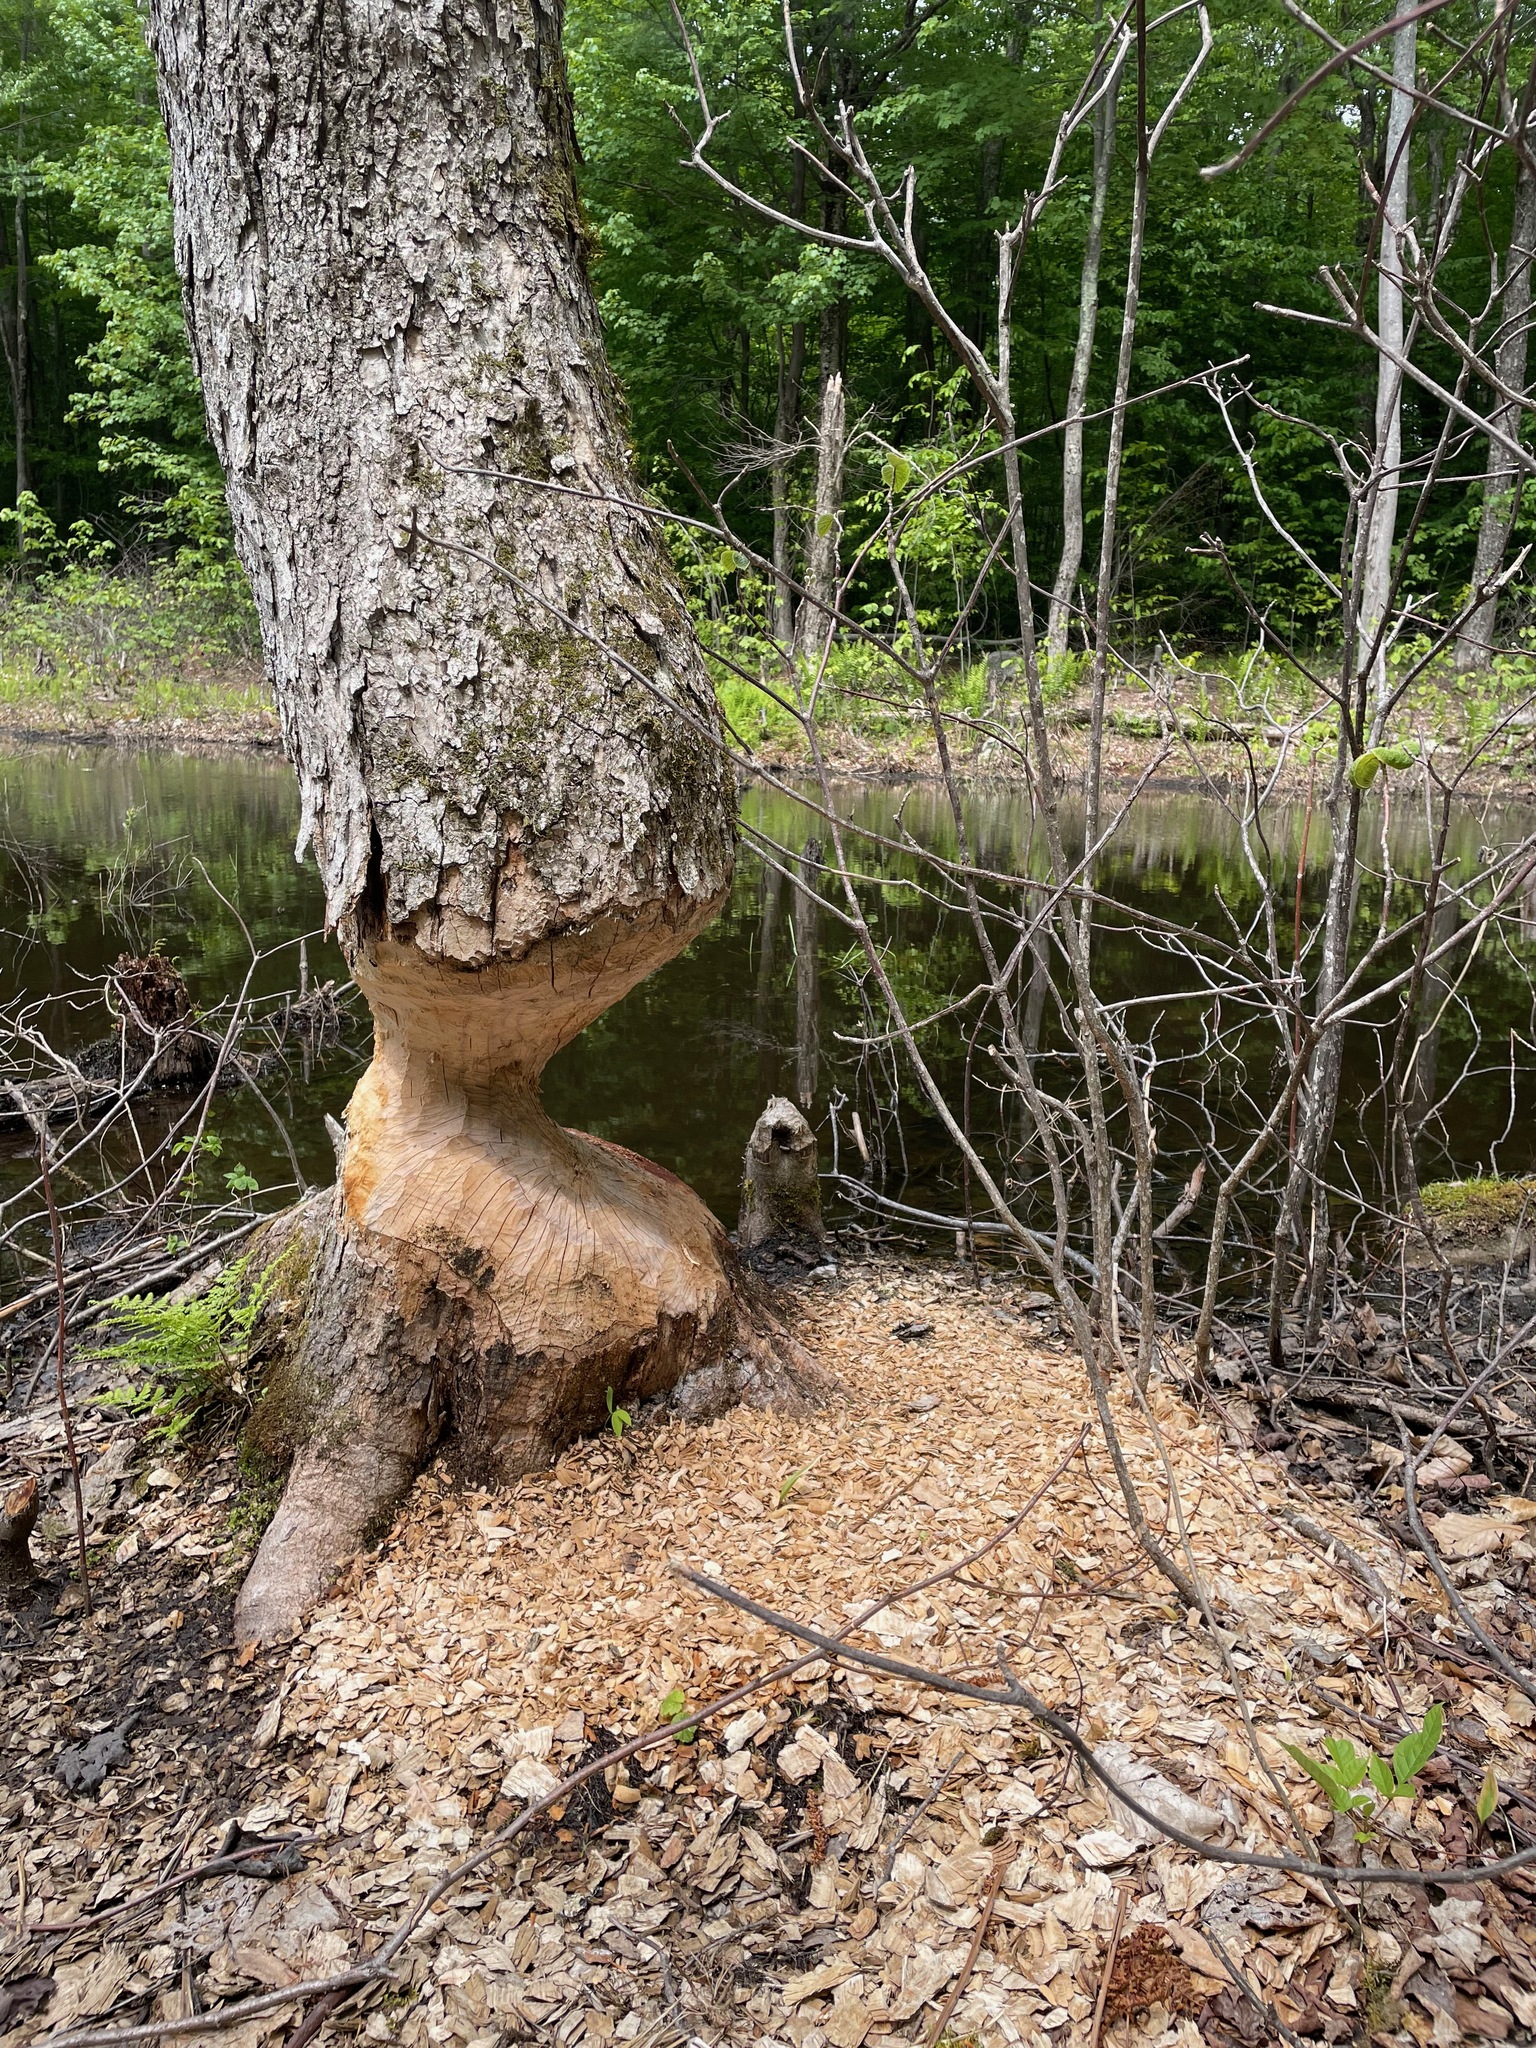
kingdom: Animalia
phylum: Chordata
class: Mammalia
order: Rodentia
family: Castoridae
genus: Castor
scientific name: Castor canadensis
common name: American beaver
